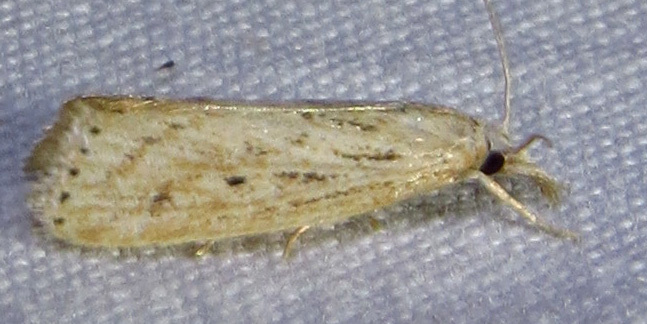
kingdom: Animalia
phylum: Arthropoda
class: Insecta
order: Lepidoptera
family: Crambidae
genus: Diatraea
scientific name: Diatraea lisetta
